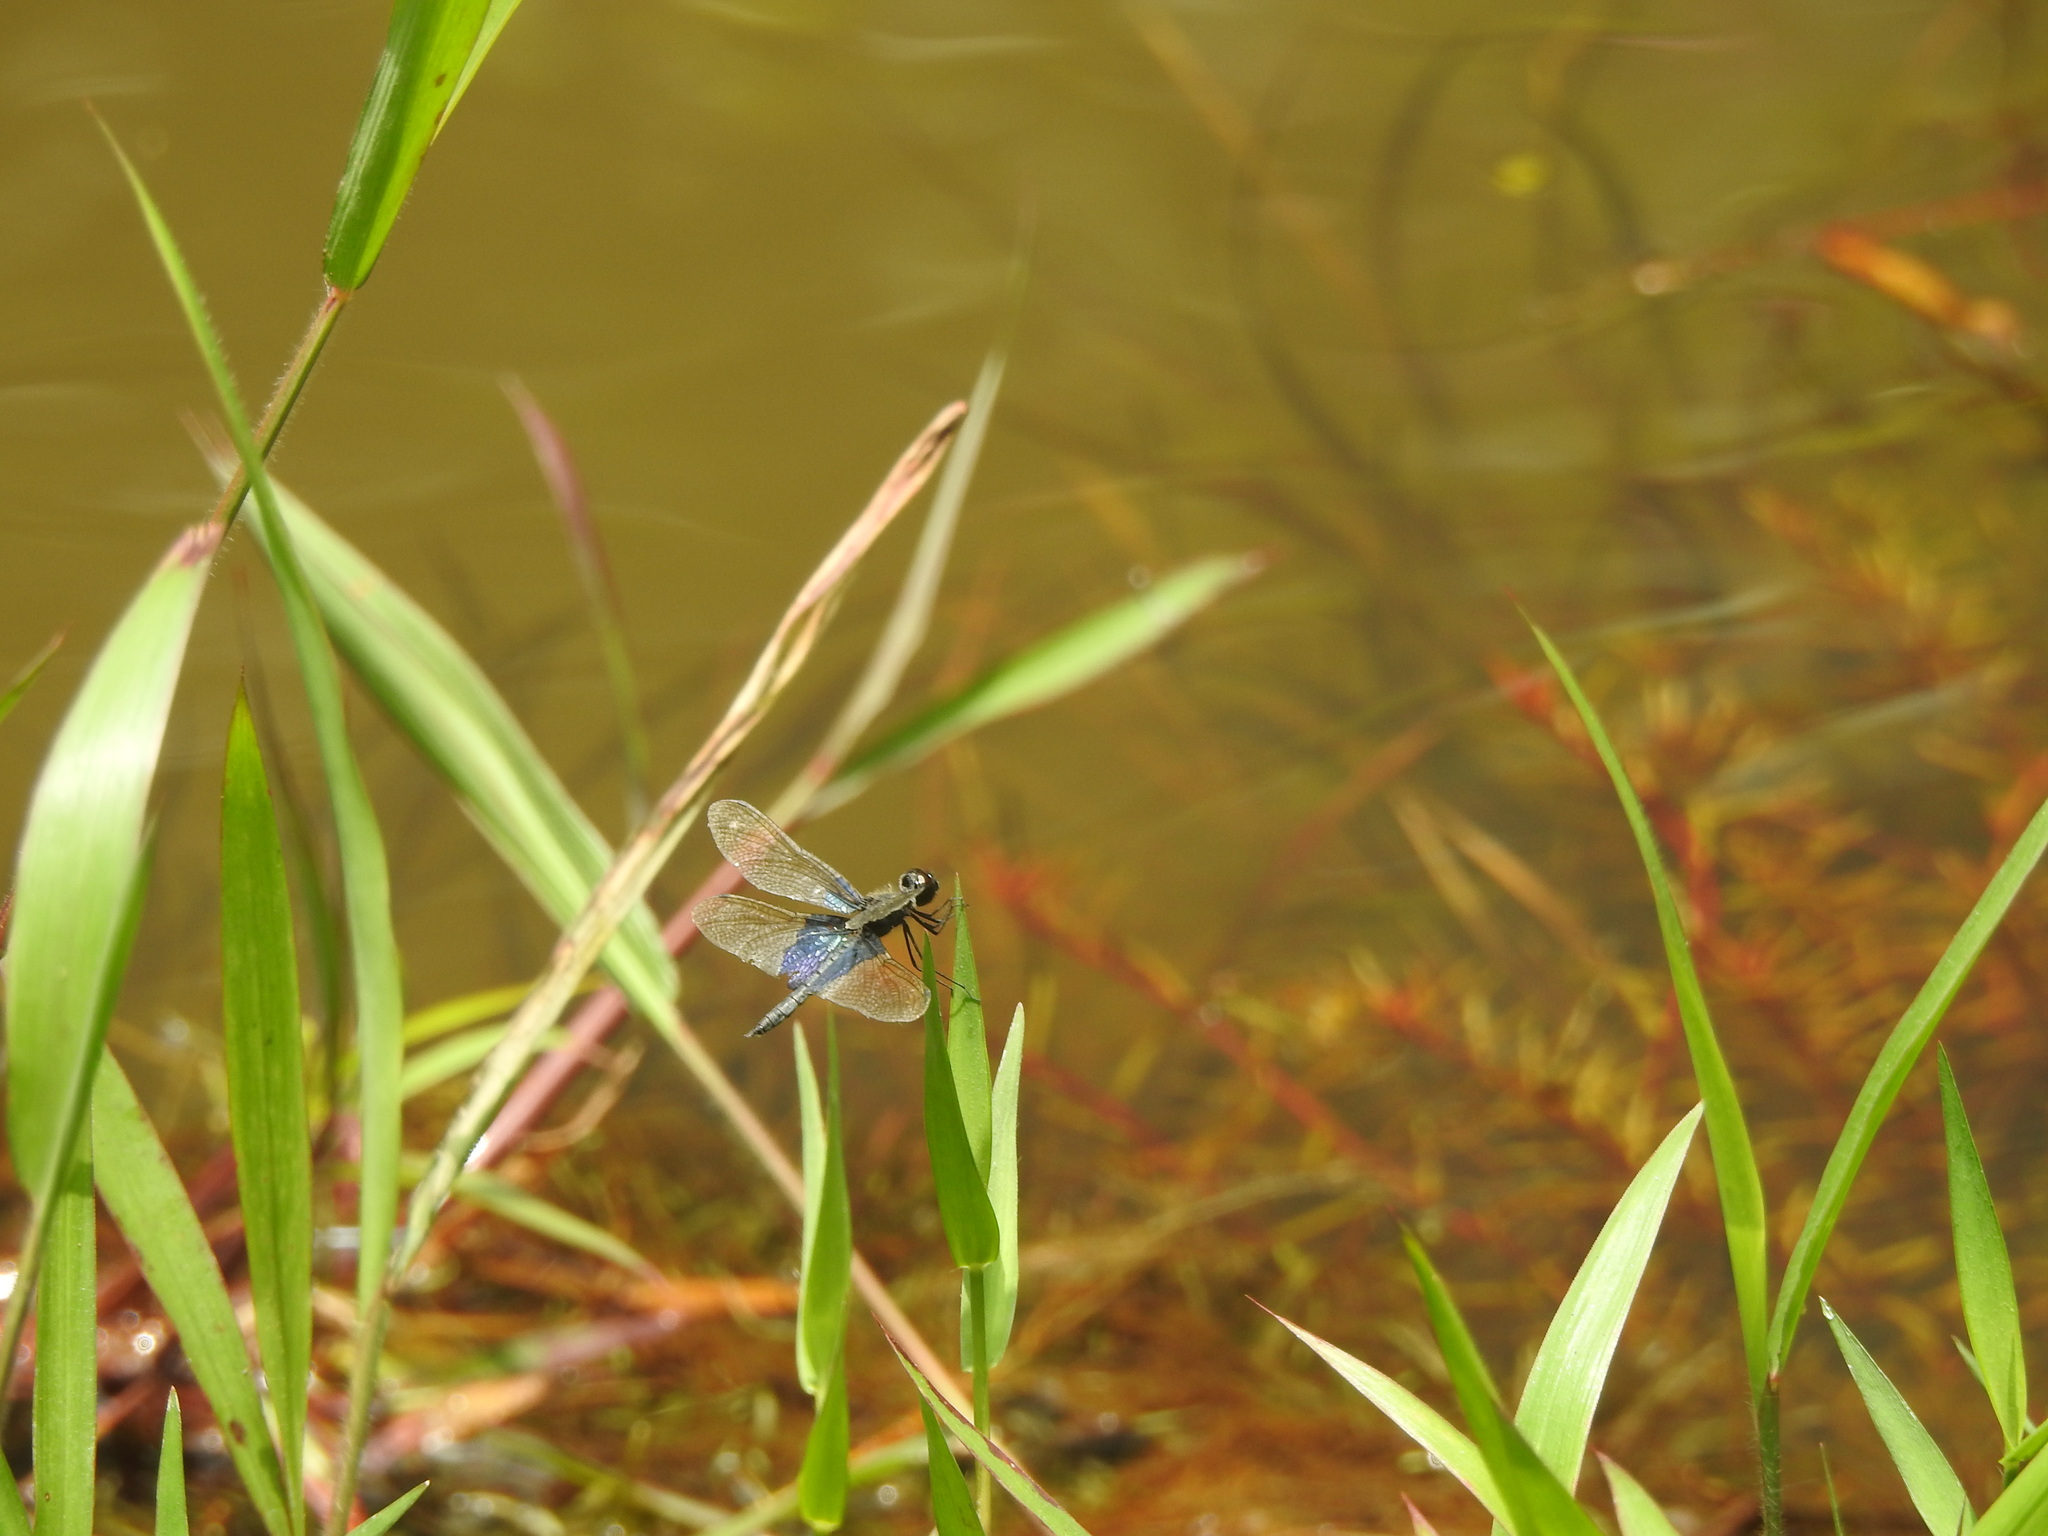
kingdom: Animalia
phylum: Arthropoda
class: Insecta
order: Odonata
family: Libellulidae
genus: Rhyothemis
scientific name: Rhyothemis triangularis
